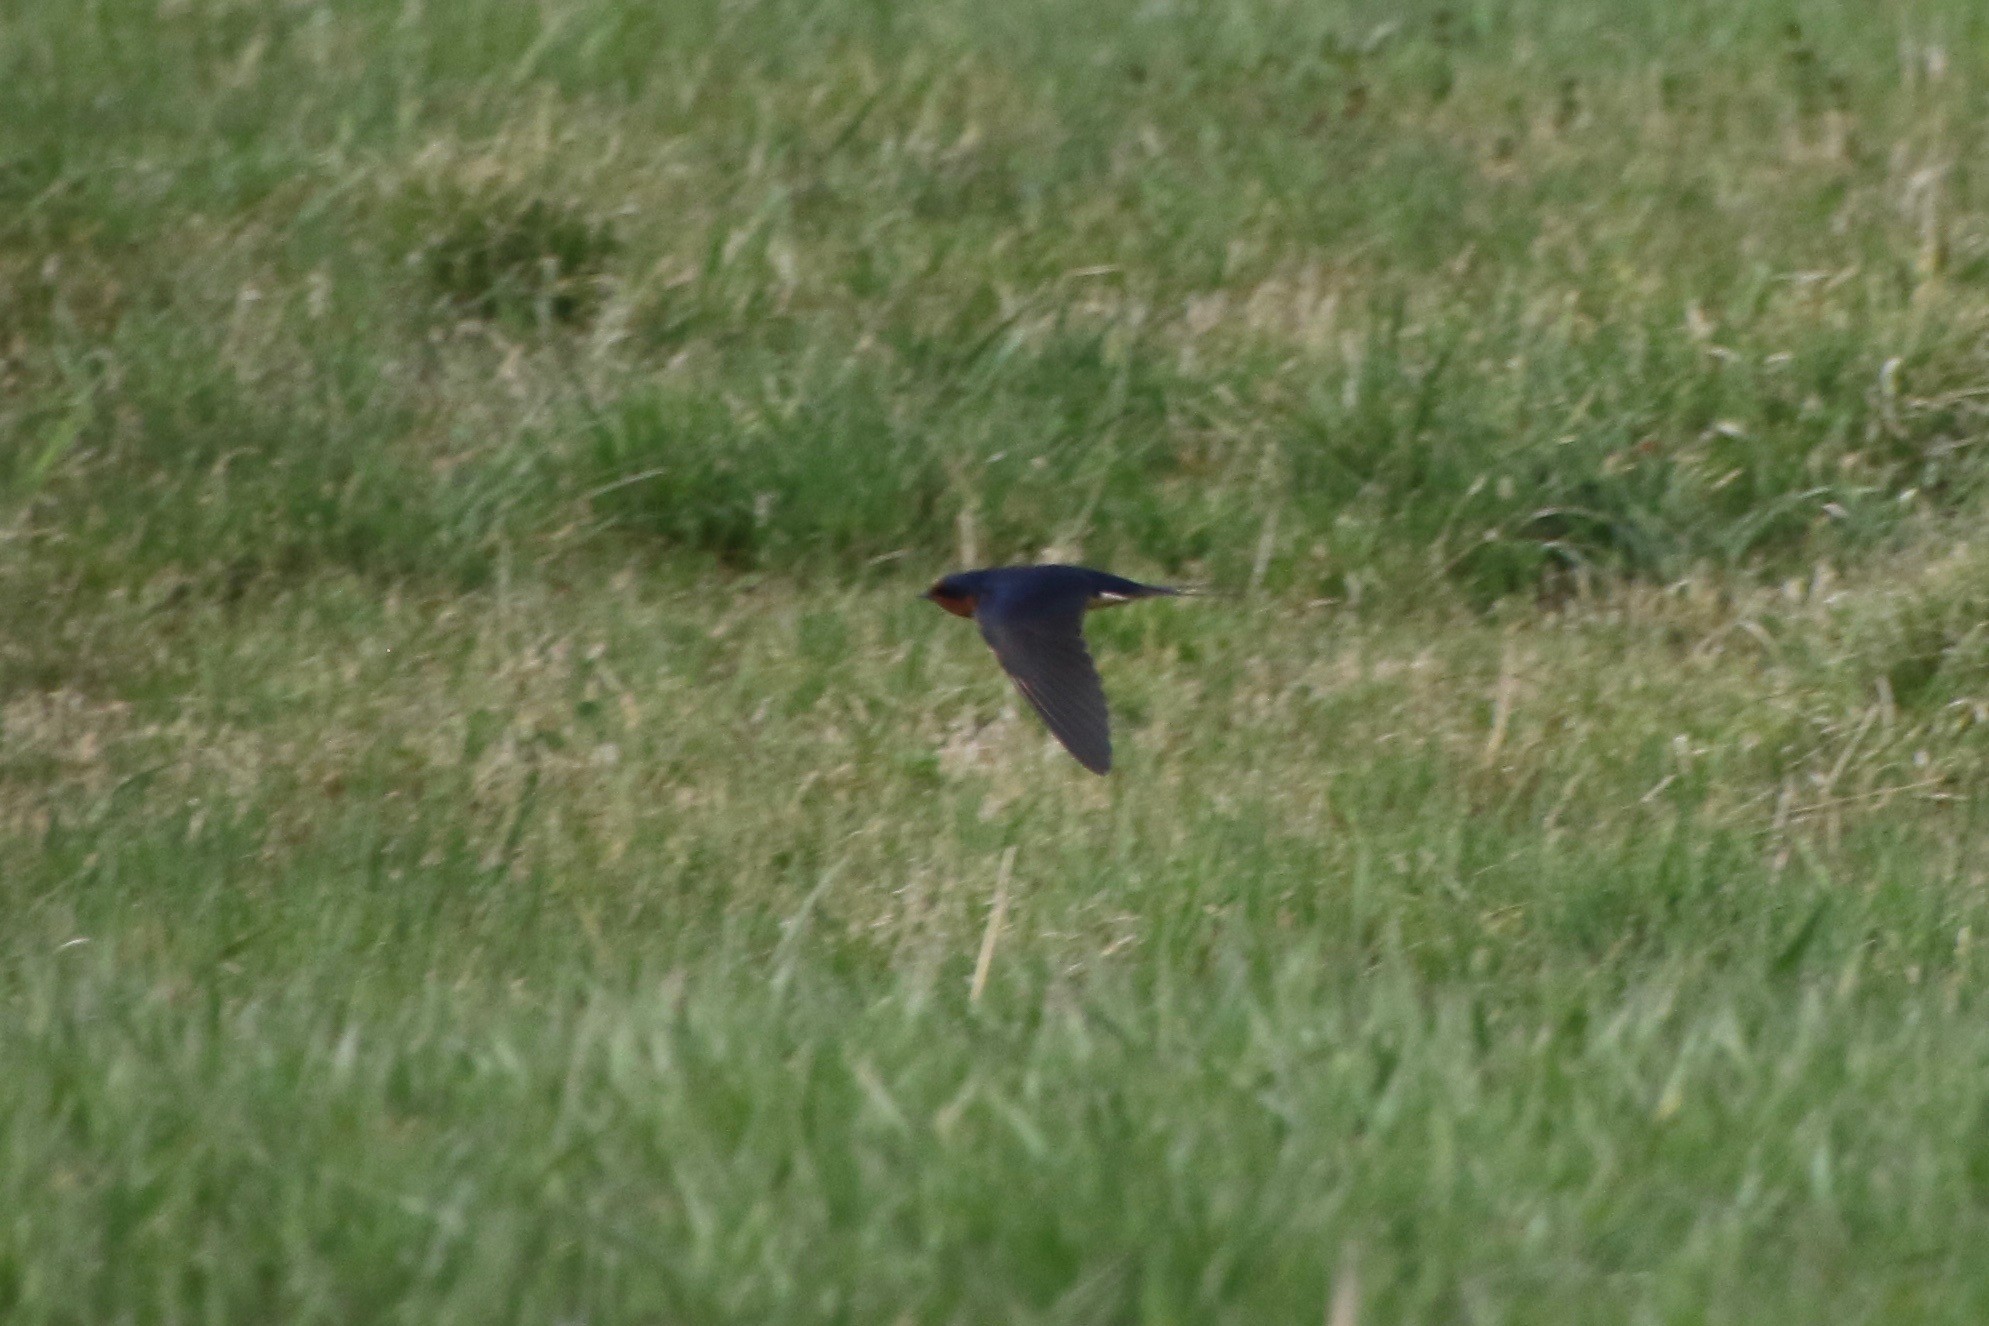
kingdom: Animalia
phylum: Chordata
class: Aves
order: Passeriformes
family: Hirundinidae
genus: Hirundo
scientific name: Hirundo rustica
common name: Barn swallow
